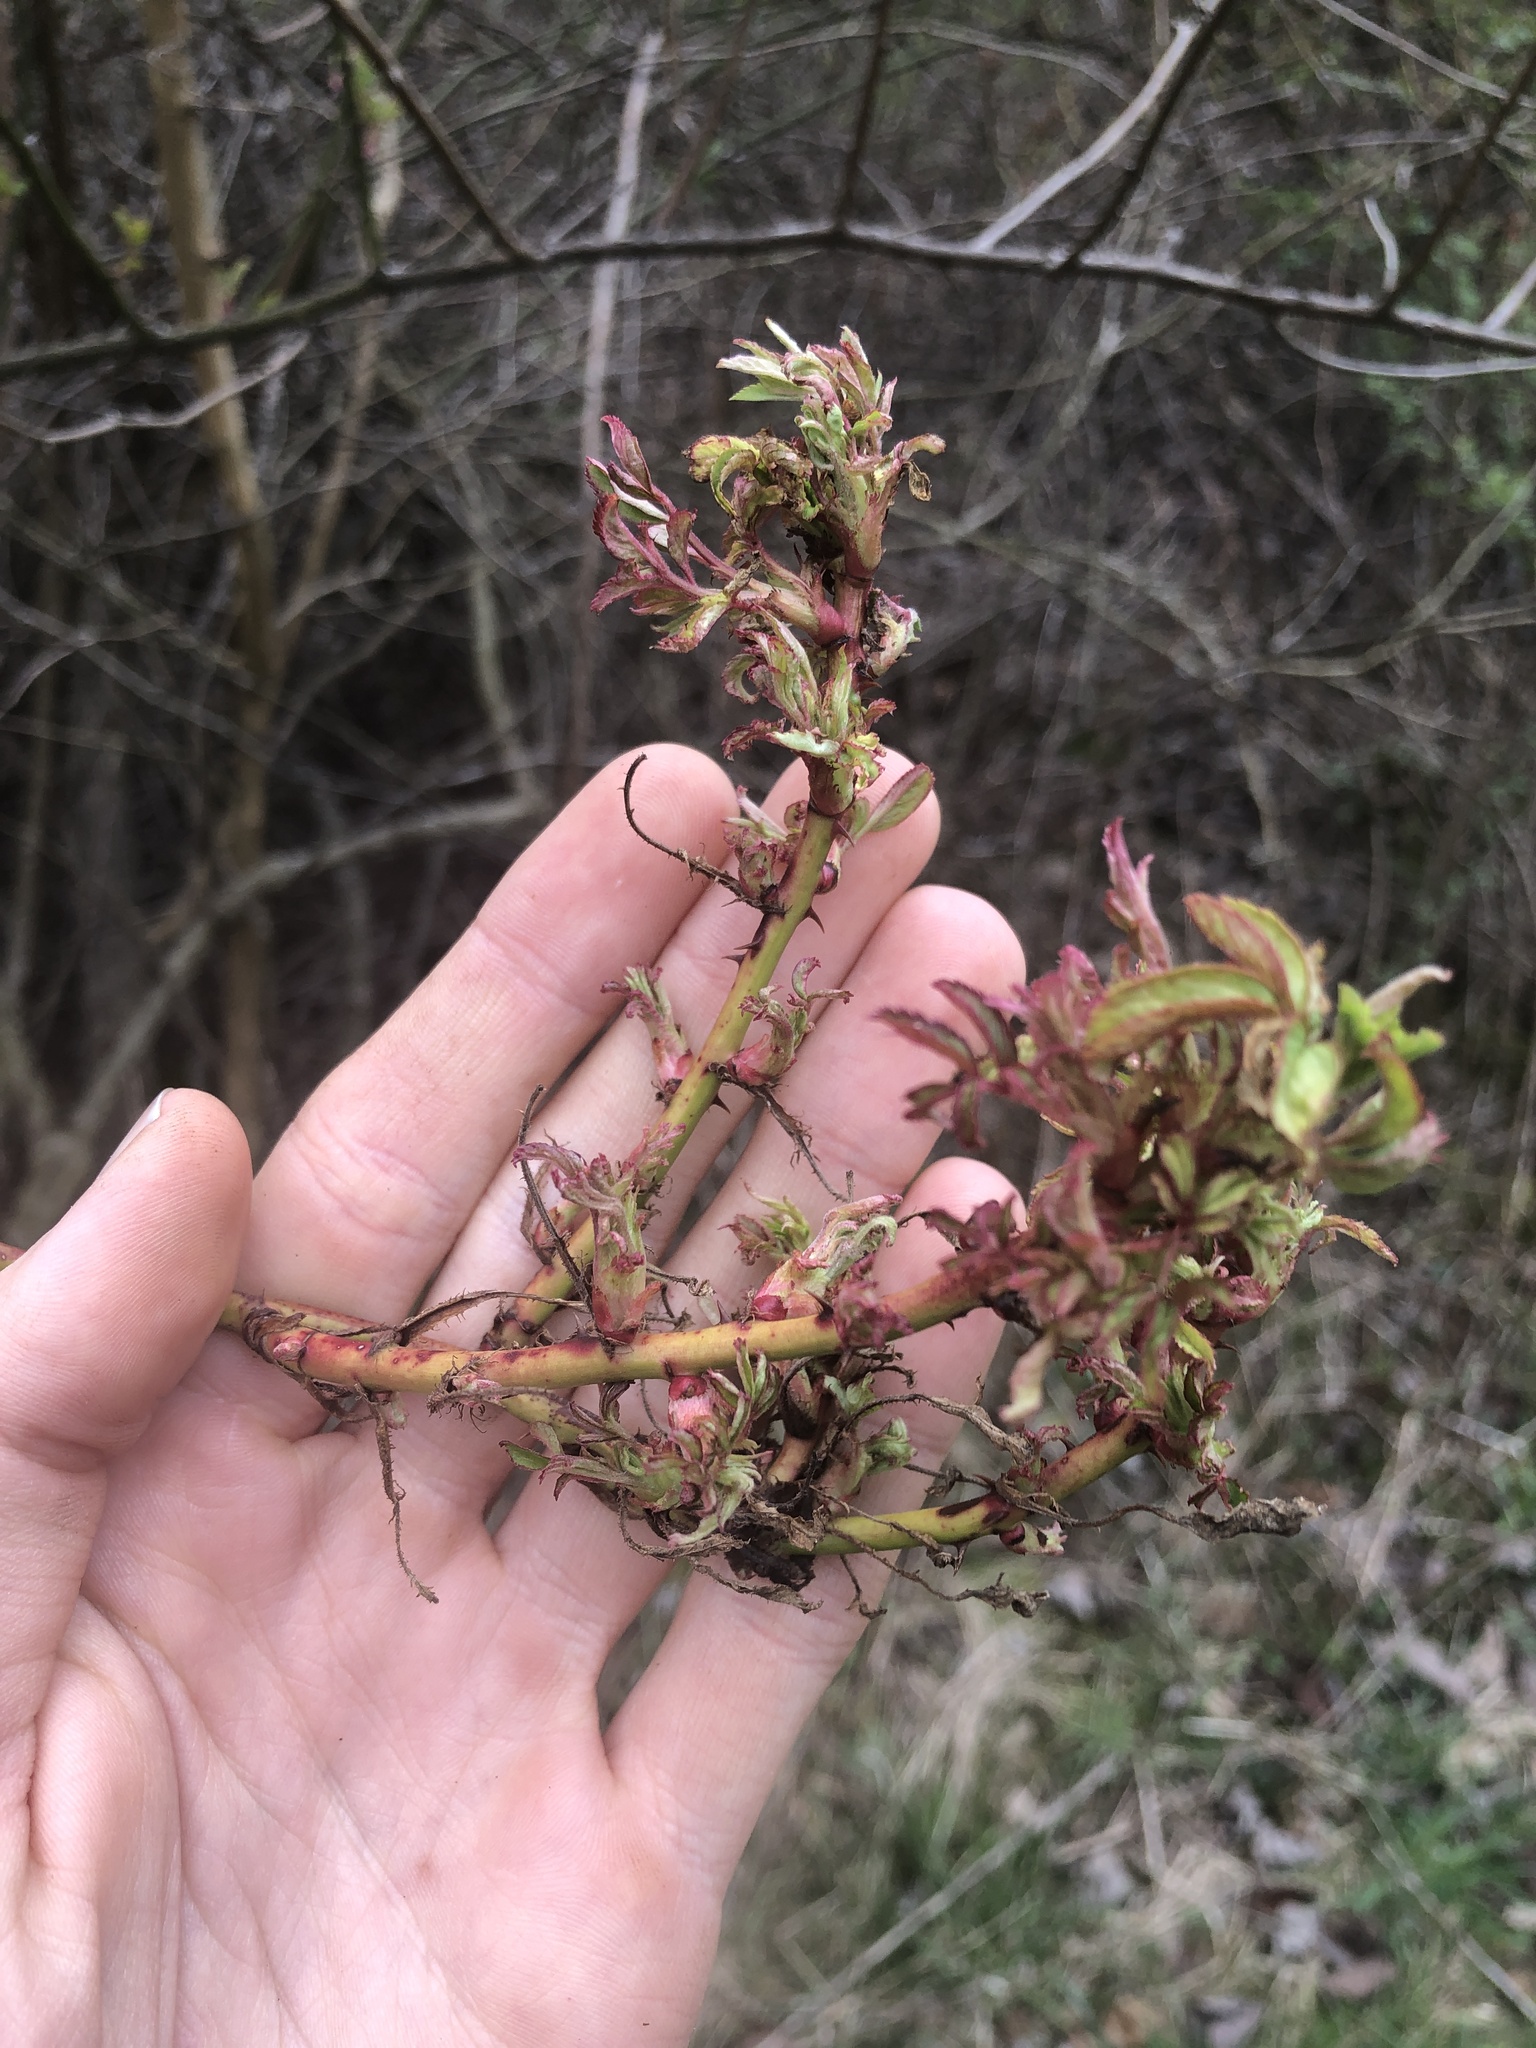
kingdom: Viruses
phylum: Negarnaviricota
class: Ellioviricetes
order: Bunyavirales
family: Fimoviridae
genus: Emaravirus
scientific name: Emaravirus rosae
